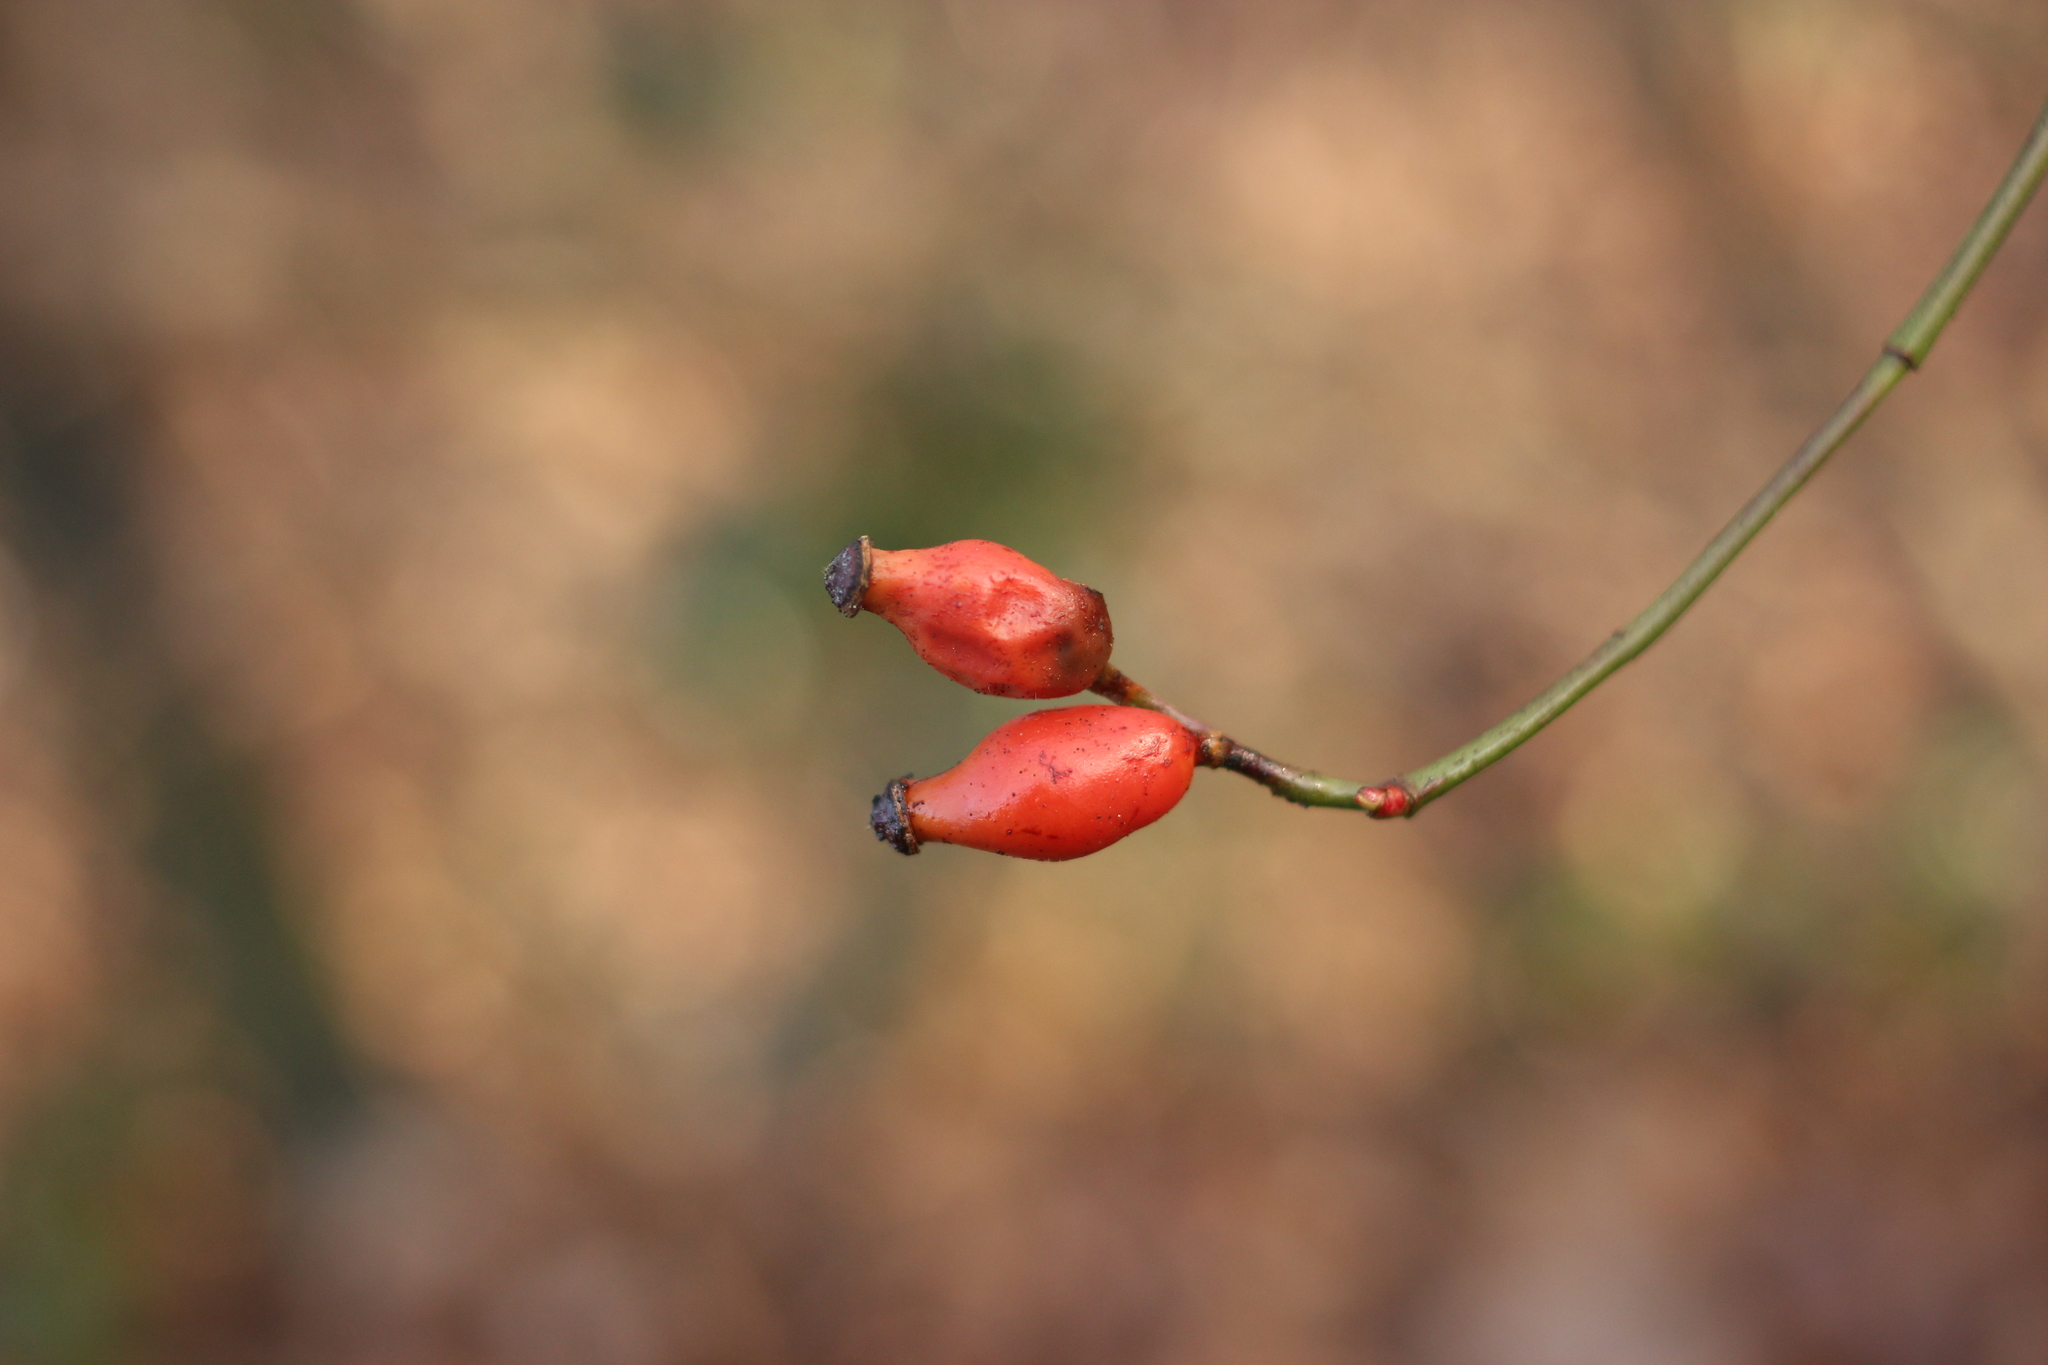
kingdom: Plantae
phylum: Tracheophyta
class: Magnoliopsida
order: Rosales
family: Rosaceae
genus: Rosa
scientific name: Rosa canina
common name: Dog rose
